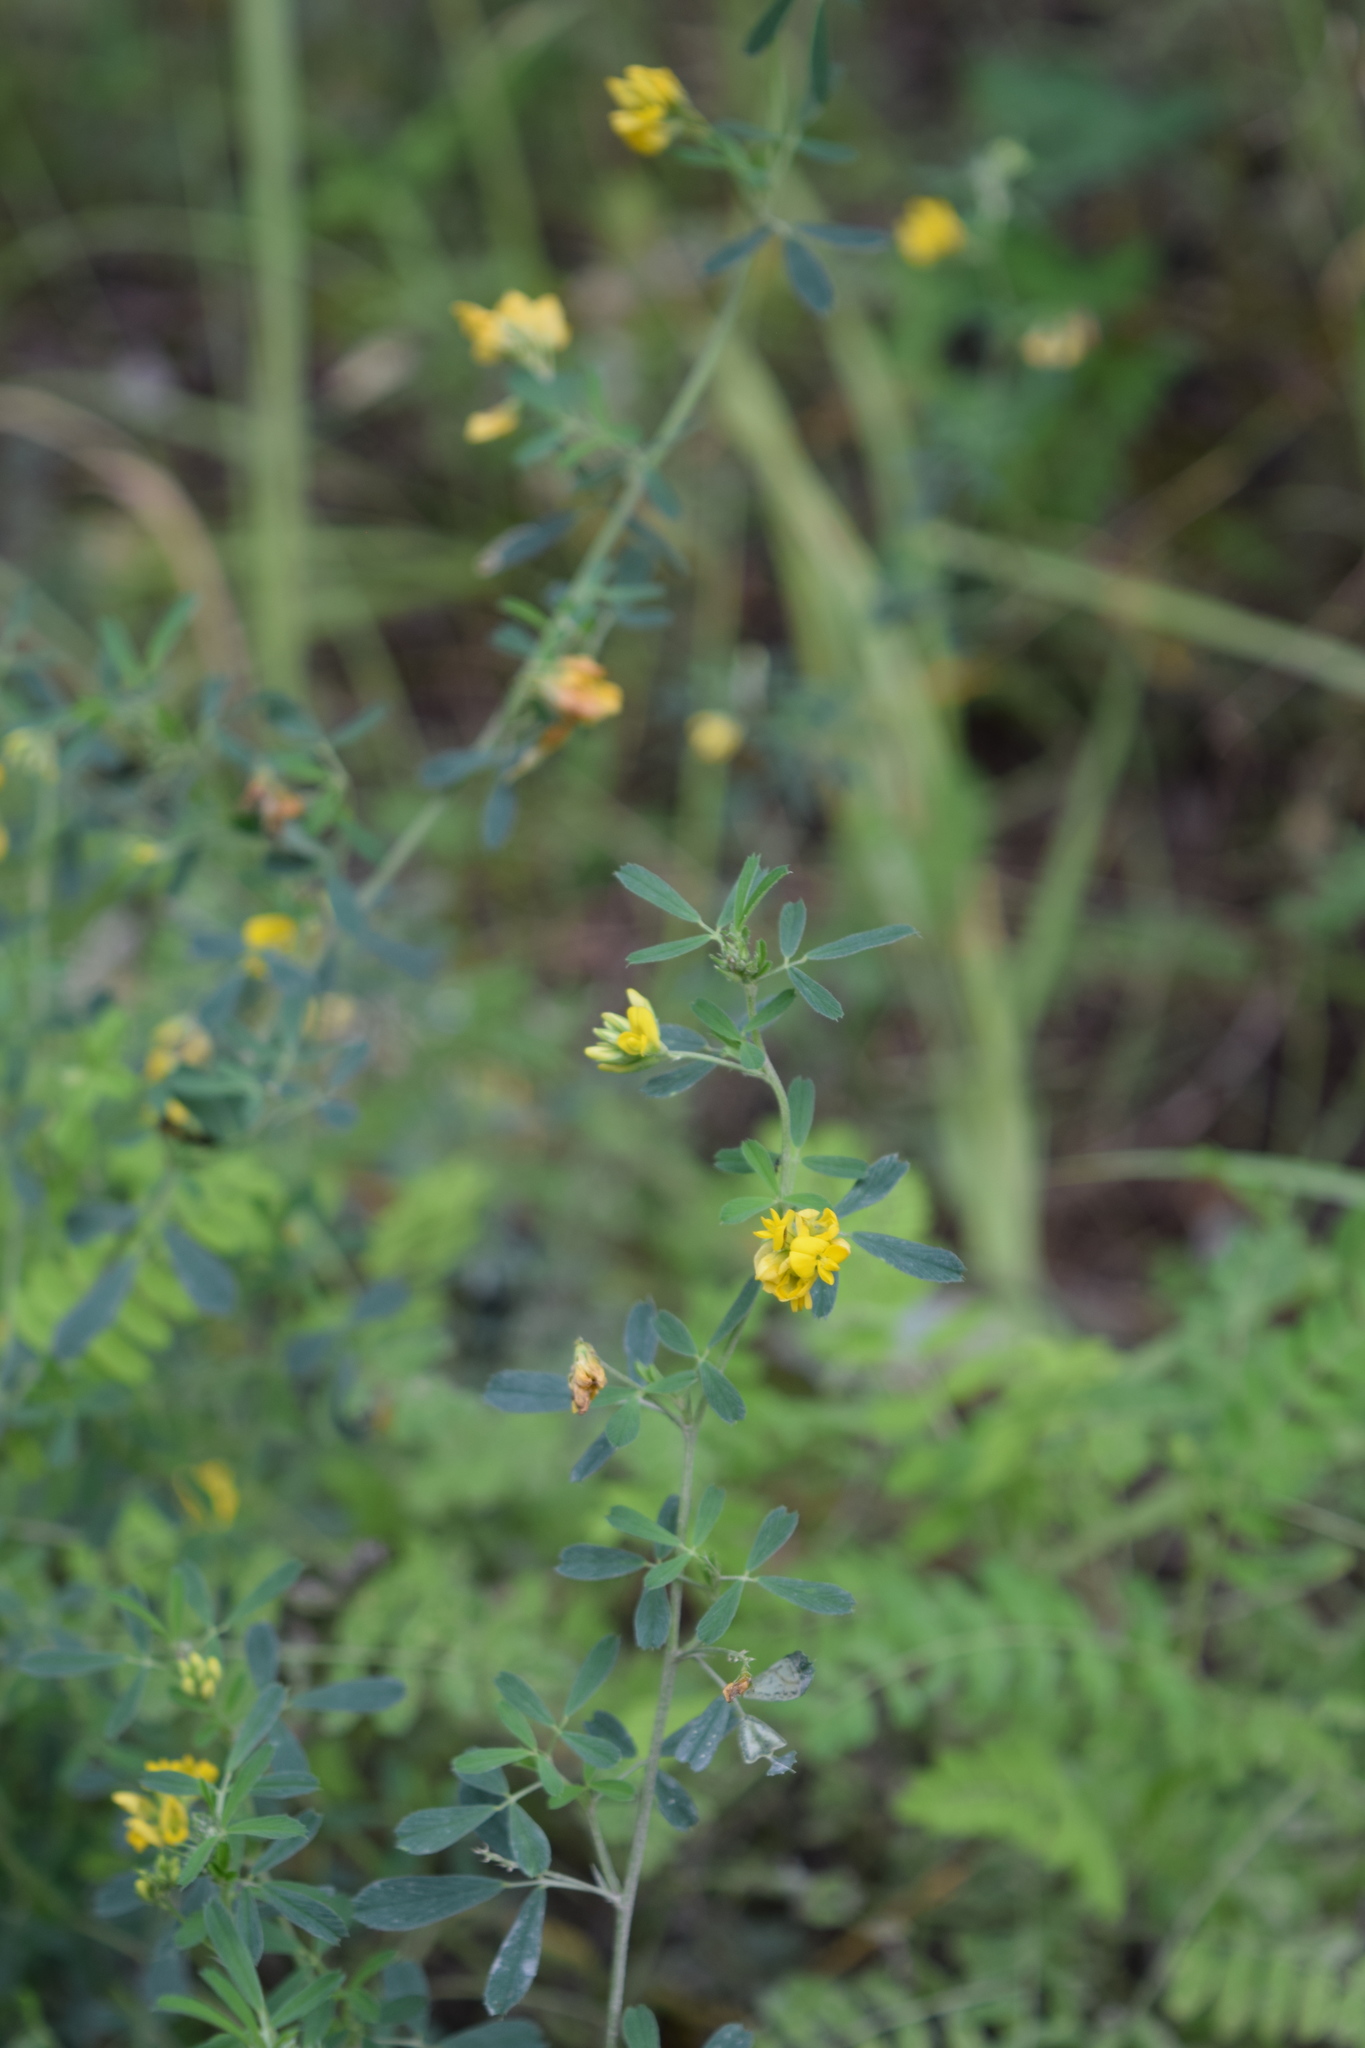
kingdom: Plantae
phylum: Tracheophyta
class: Magnoliopsida
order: Fabales
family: Fabaceae
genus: Medicago
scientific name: Medicago falcata
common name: Sickle medick
